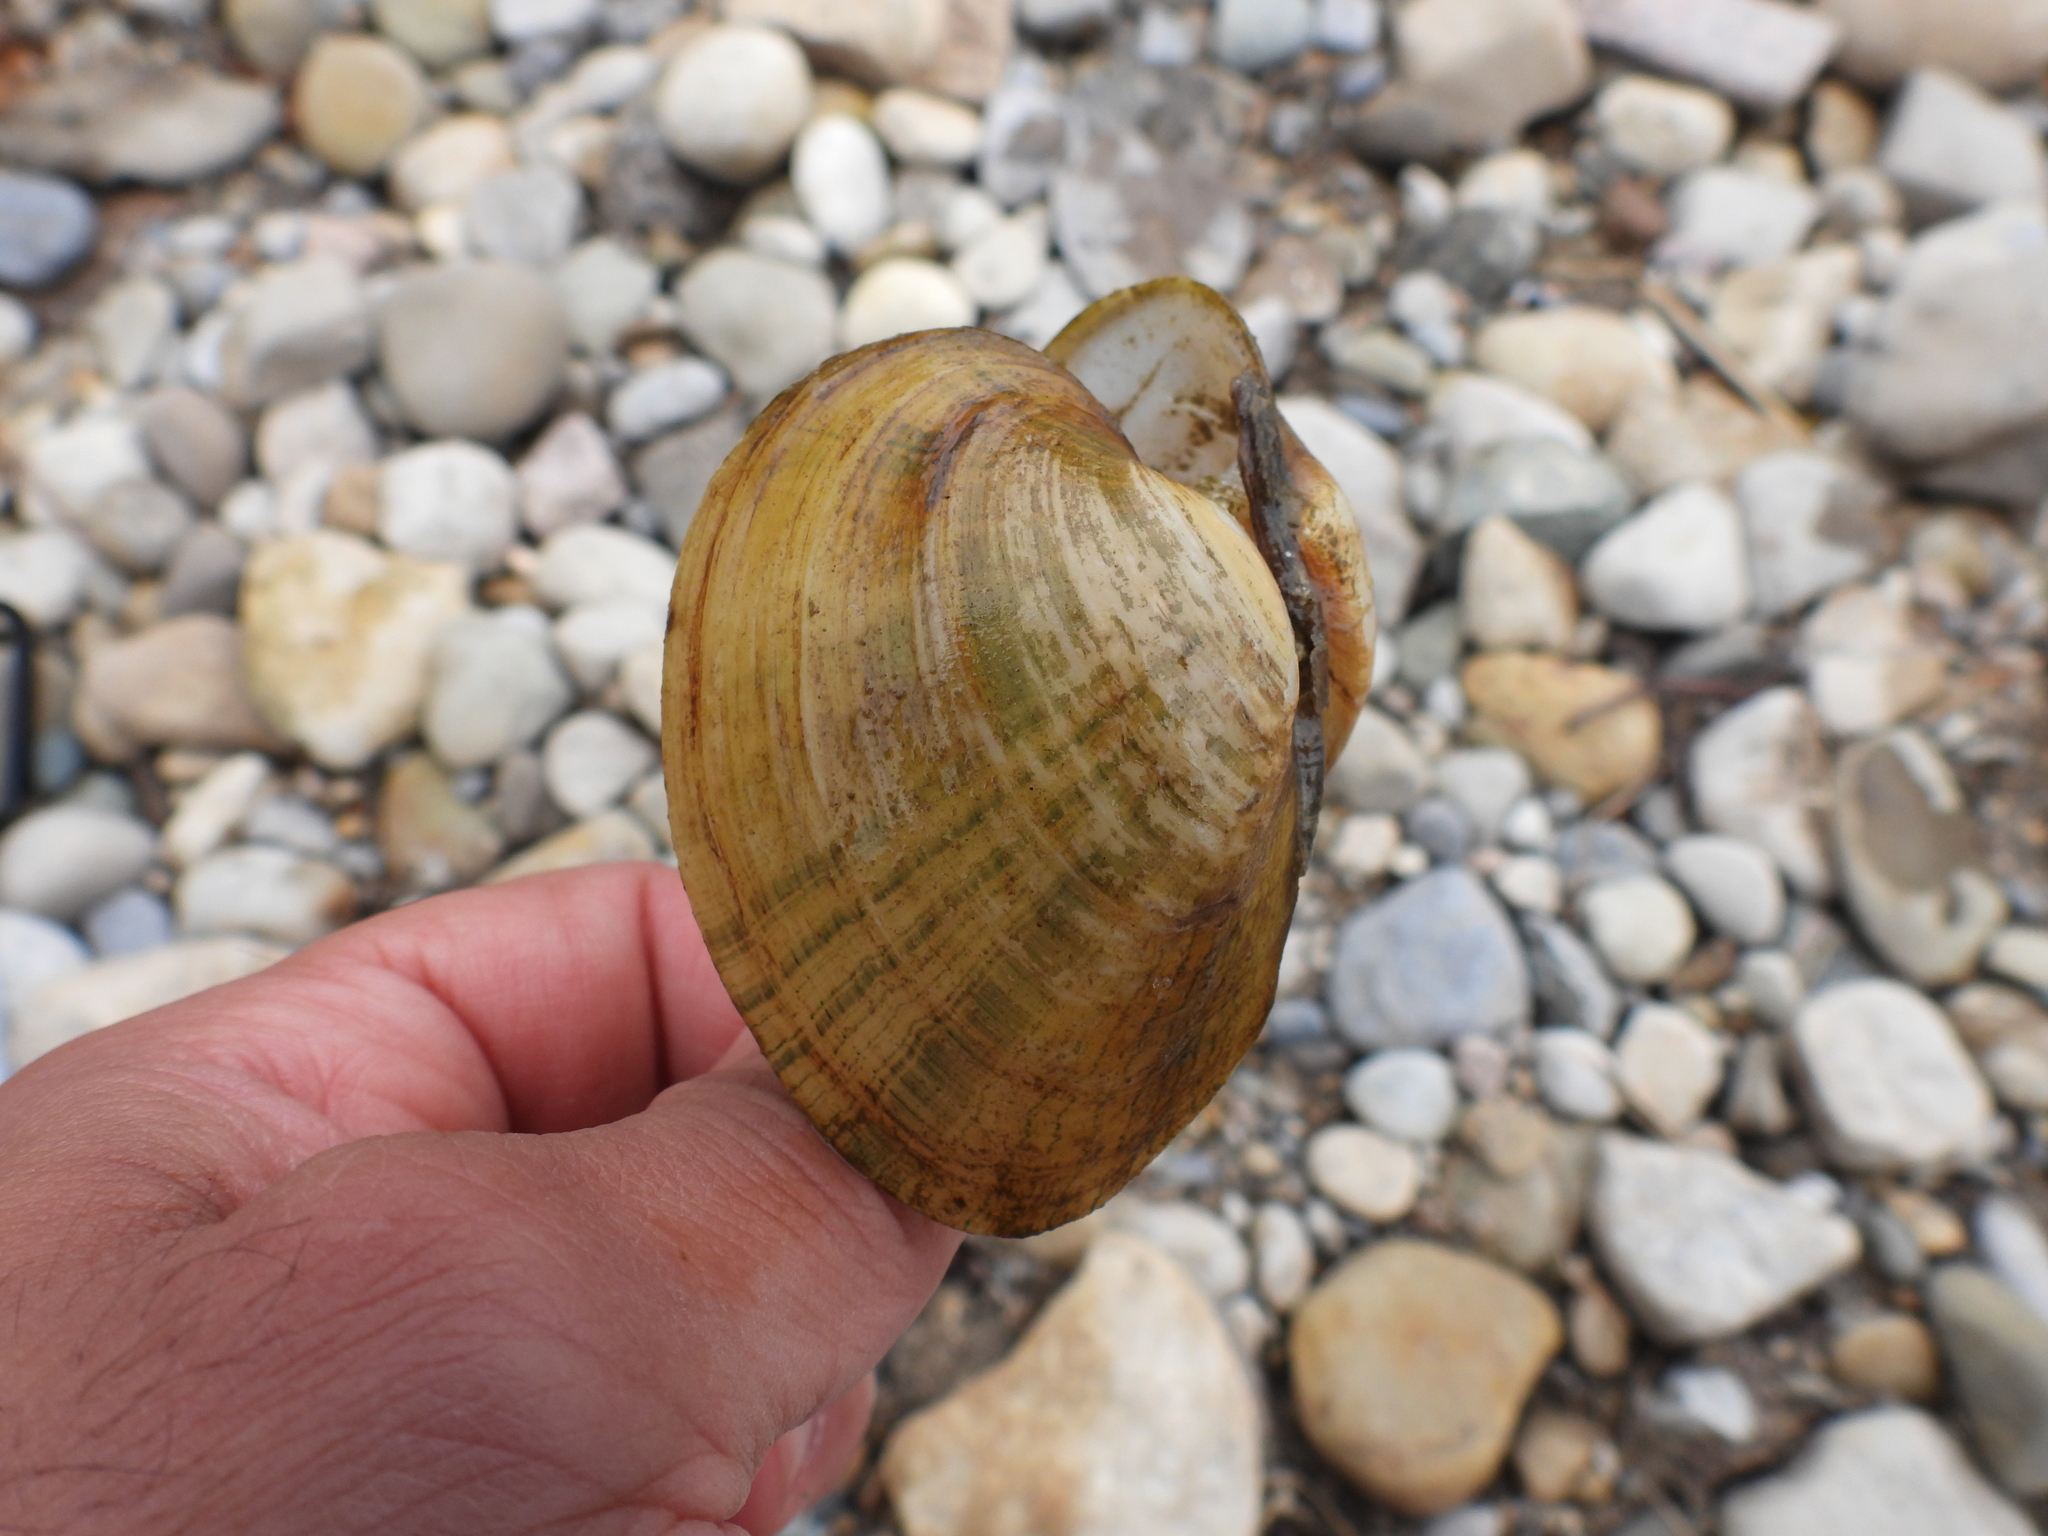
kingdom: Animalia
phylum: Mollusca
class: Bivalvia
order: Unionida
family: Unionidae
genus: Lampsilis
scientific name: Lampsilis fasciola
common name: Wavyrayed lampmussel
